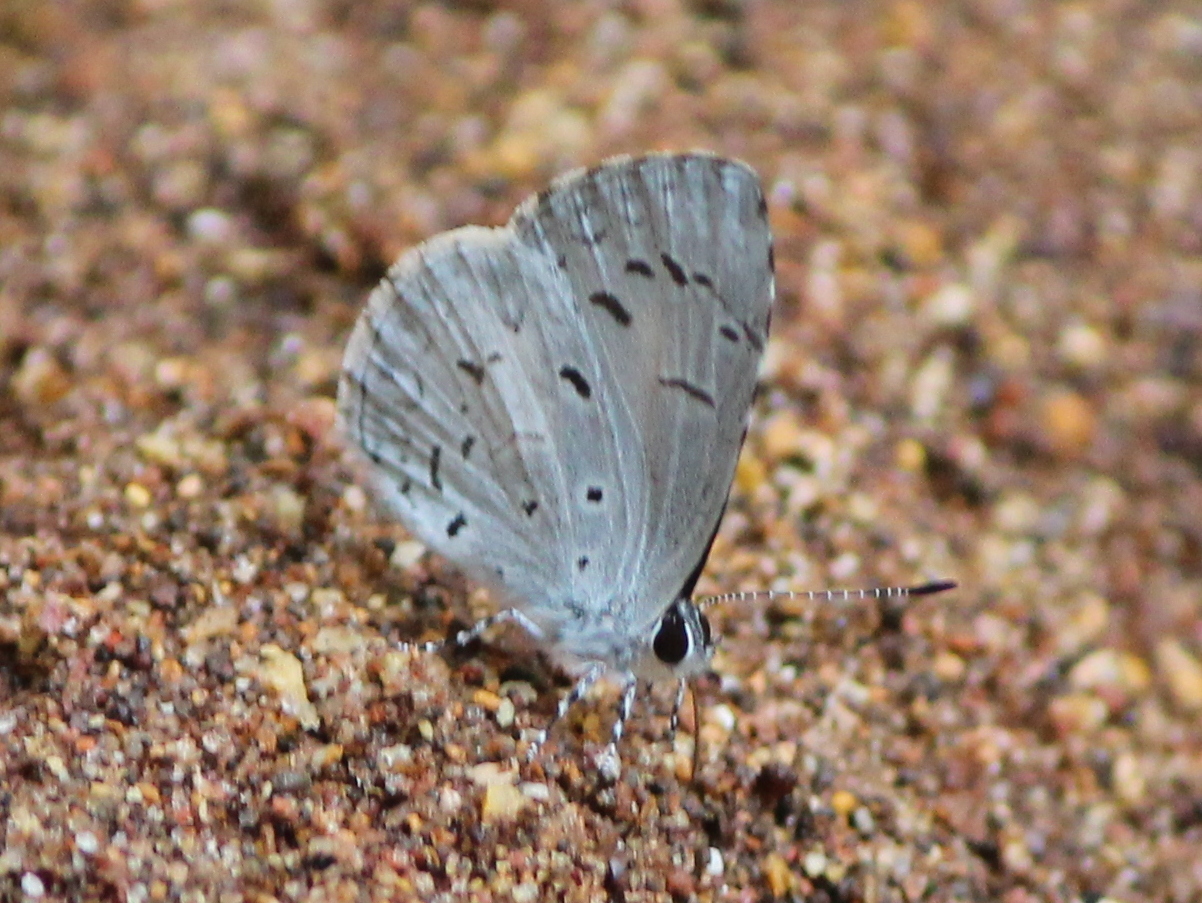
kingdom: Animalia
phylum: Arthropoda
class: Insecta
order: Lepidoptera
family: Lycaenidae
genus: Acytolepis
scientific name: Acytolepis puspa
